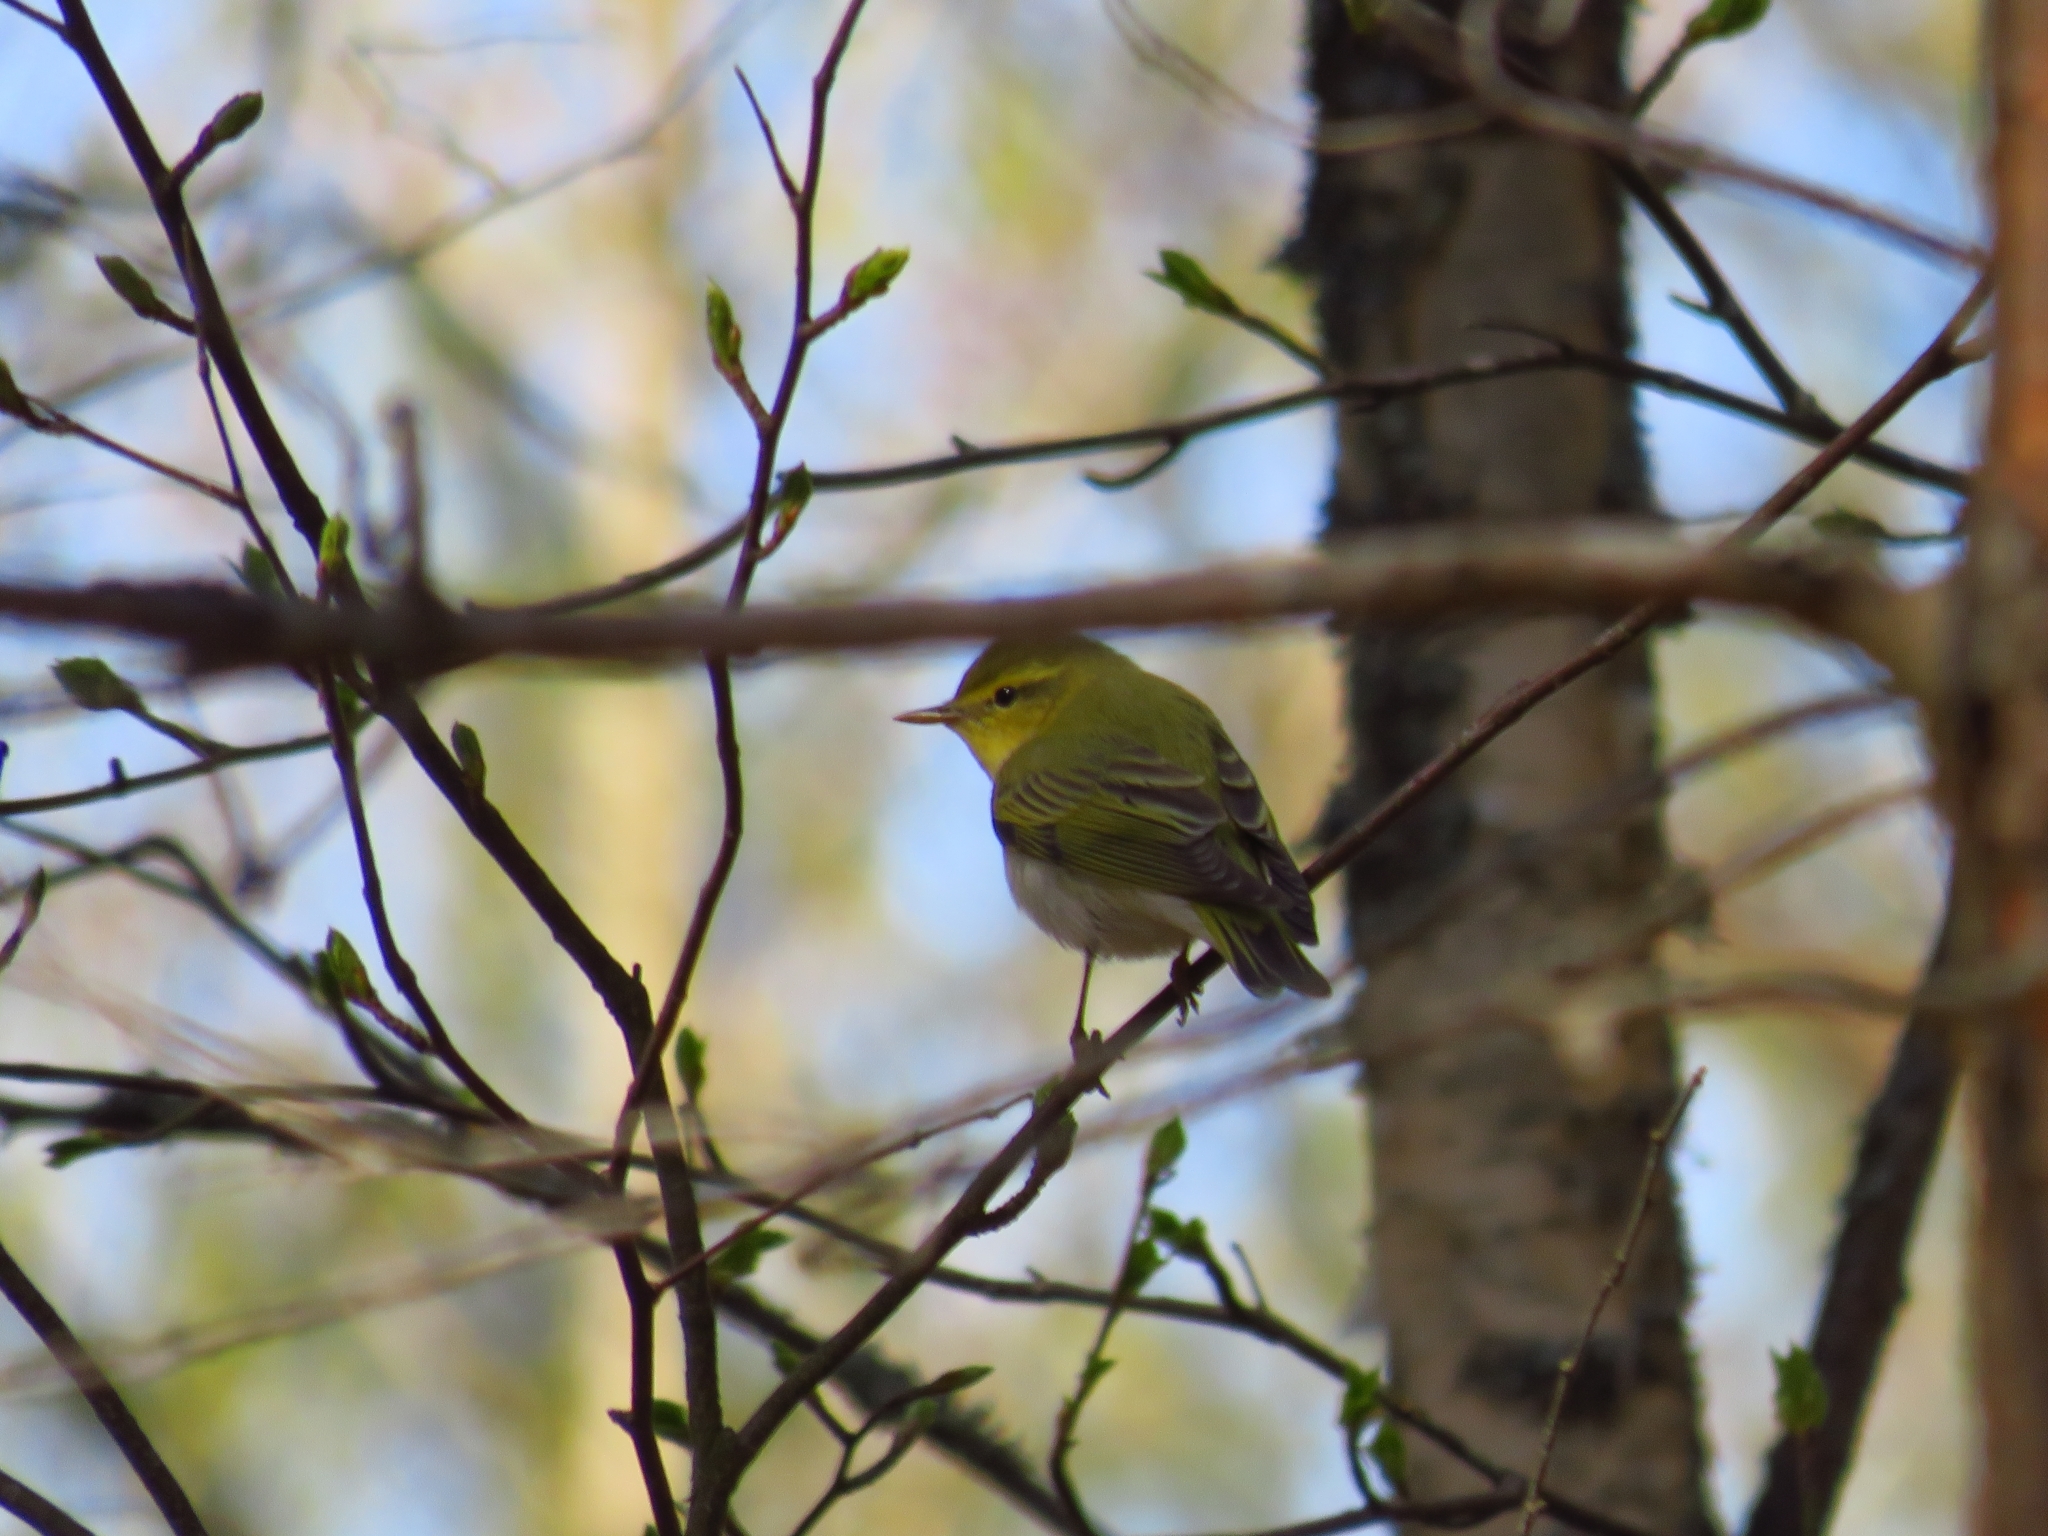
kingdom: Animalia
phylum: Chordata
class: Aves
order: Passeriformes
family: Phylloscopidae
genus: Phylloscopus
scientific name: Phylloscopus sibillatrix
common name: Wood warbler
